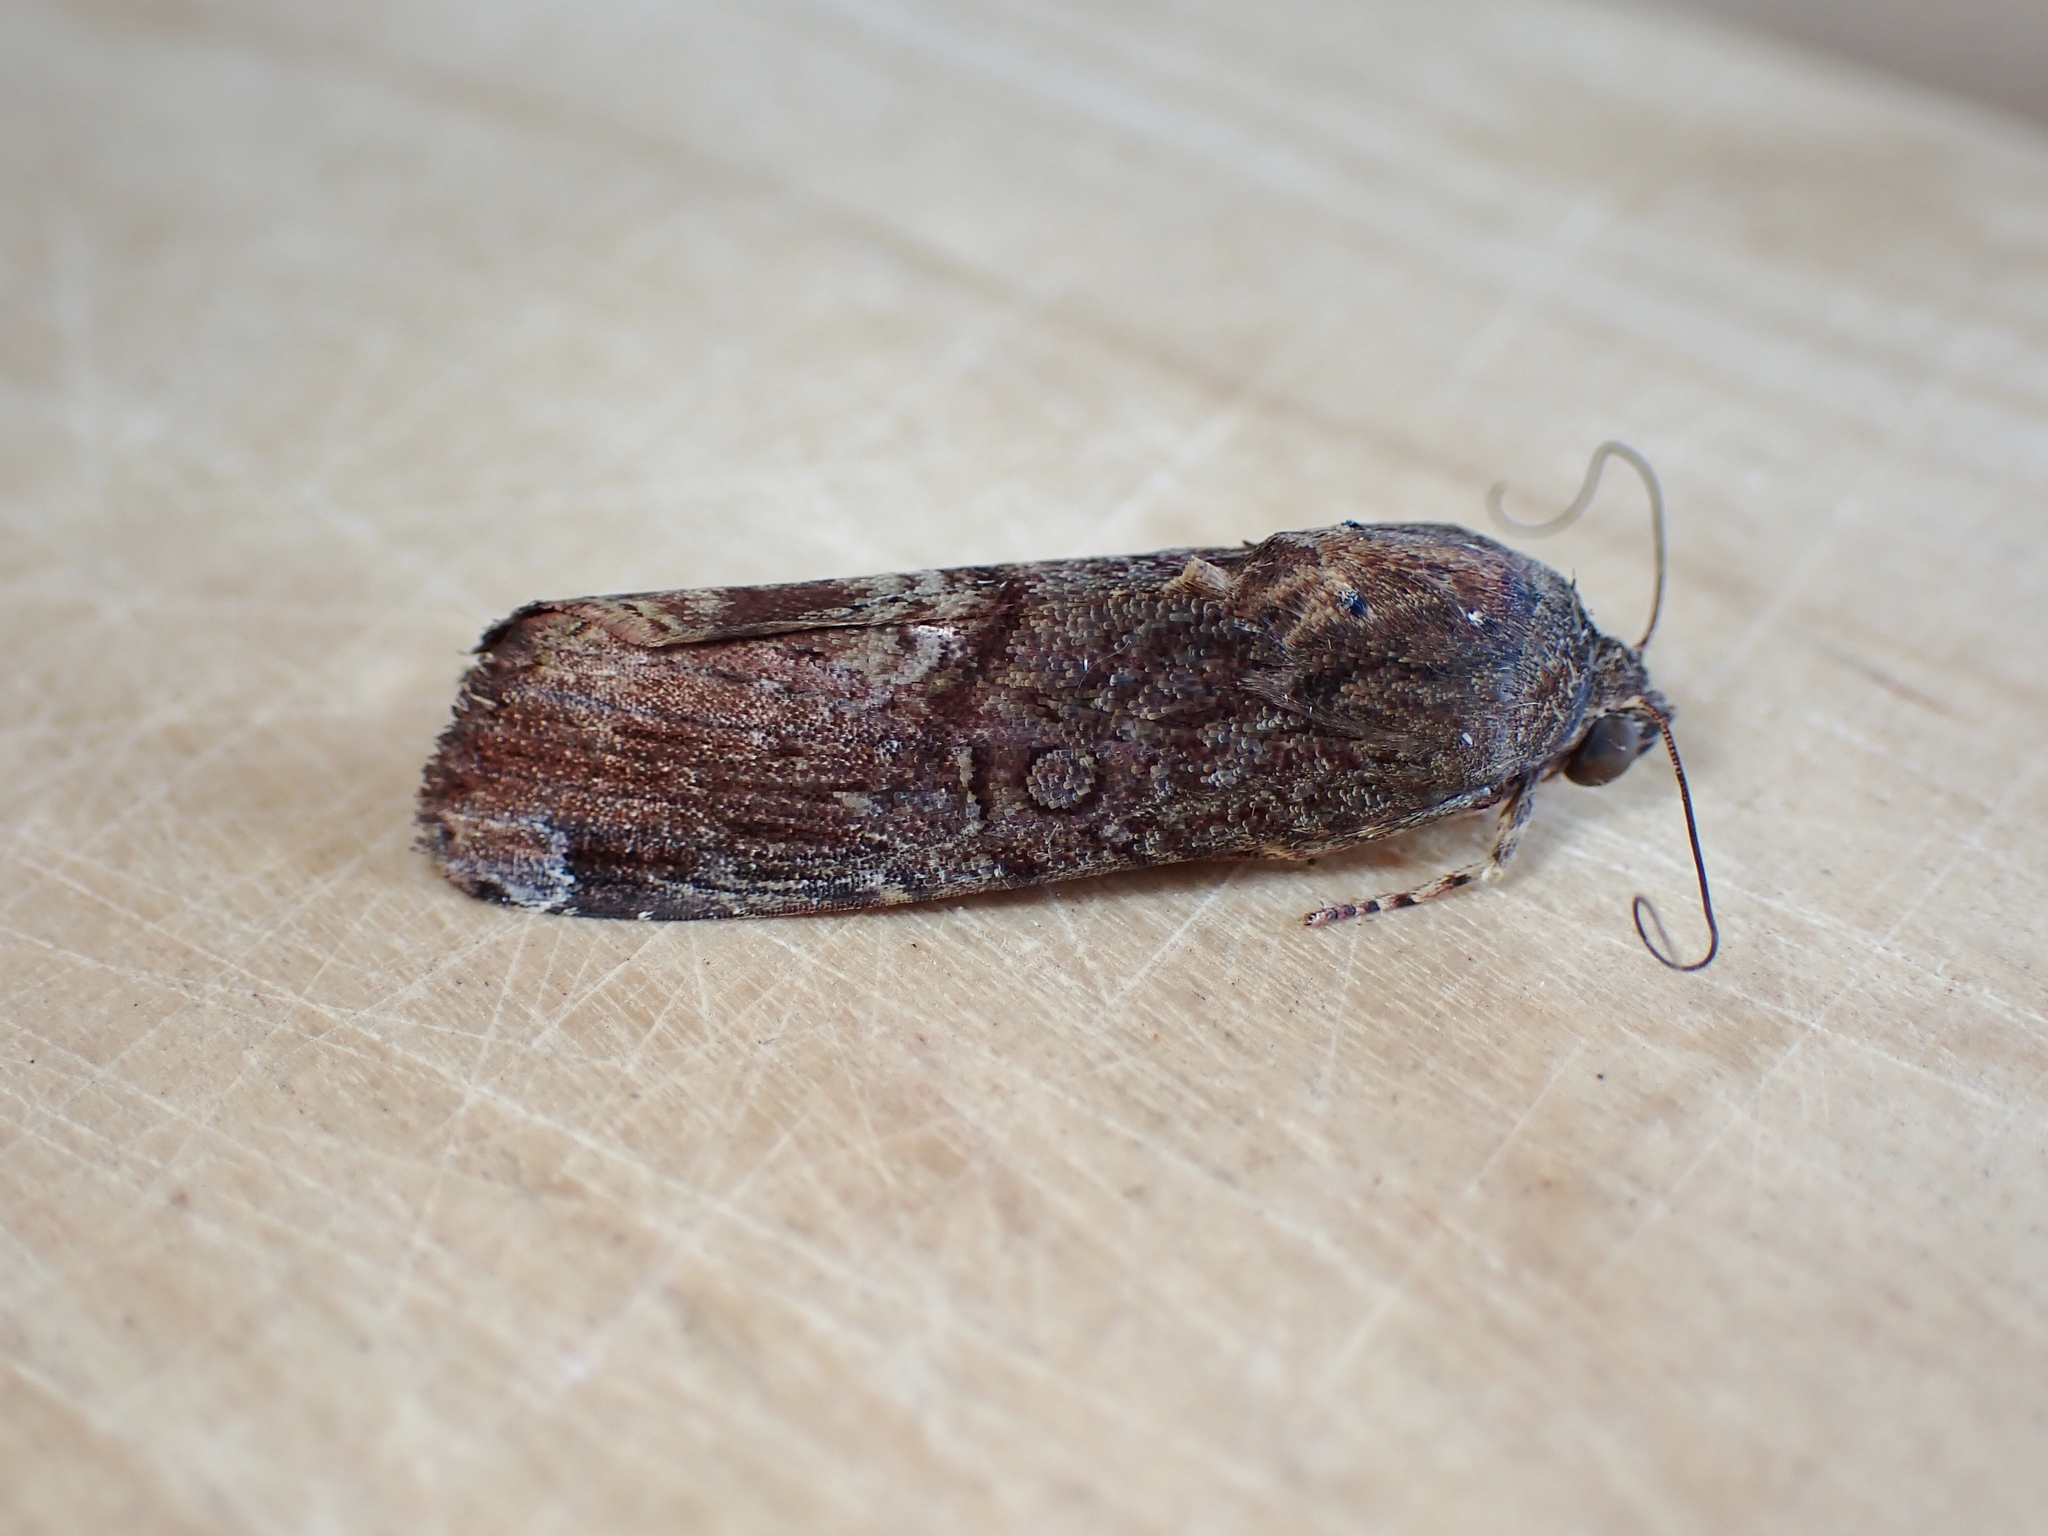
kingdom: Animalia
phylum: Arthropoda
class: Insecta
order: Lepidoptera
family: Noctuidae
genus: Magusa
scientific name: Magusa divaricata
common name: Orb narrow-winged moth
